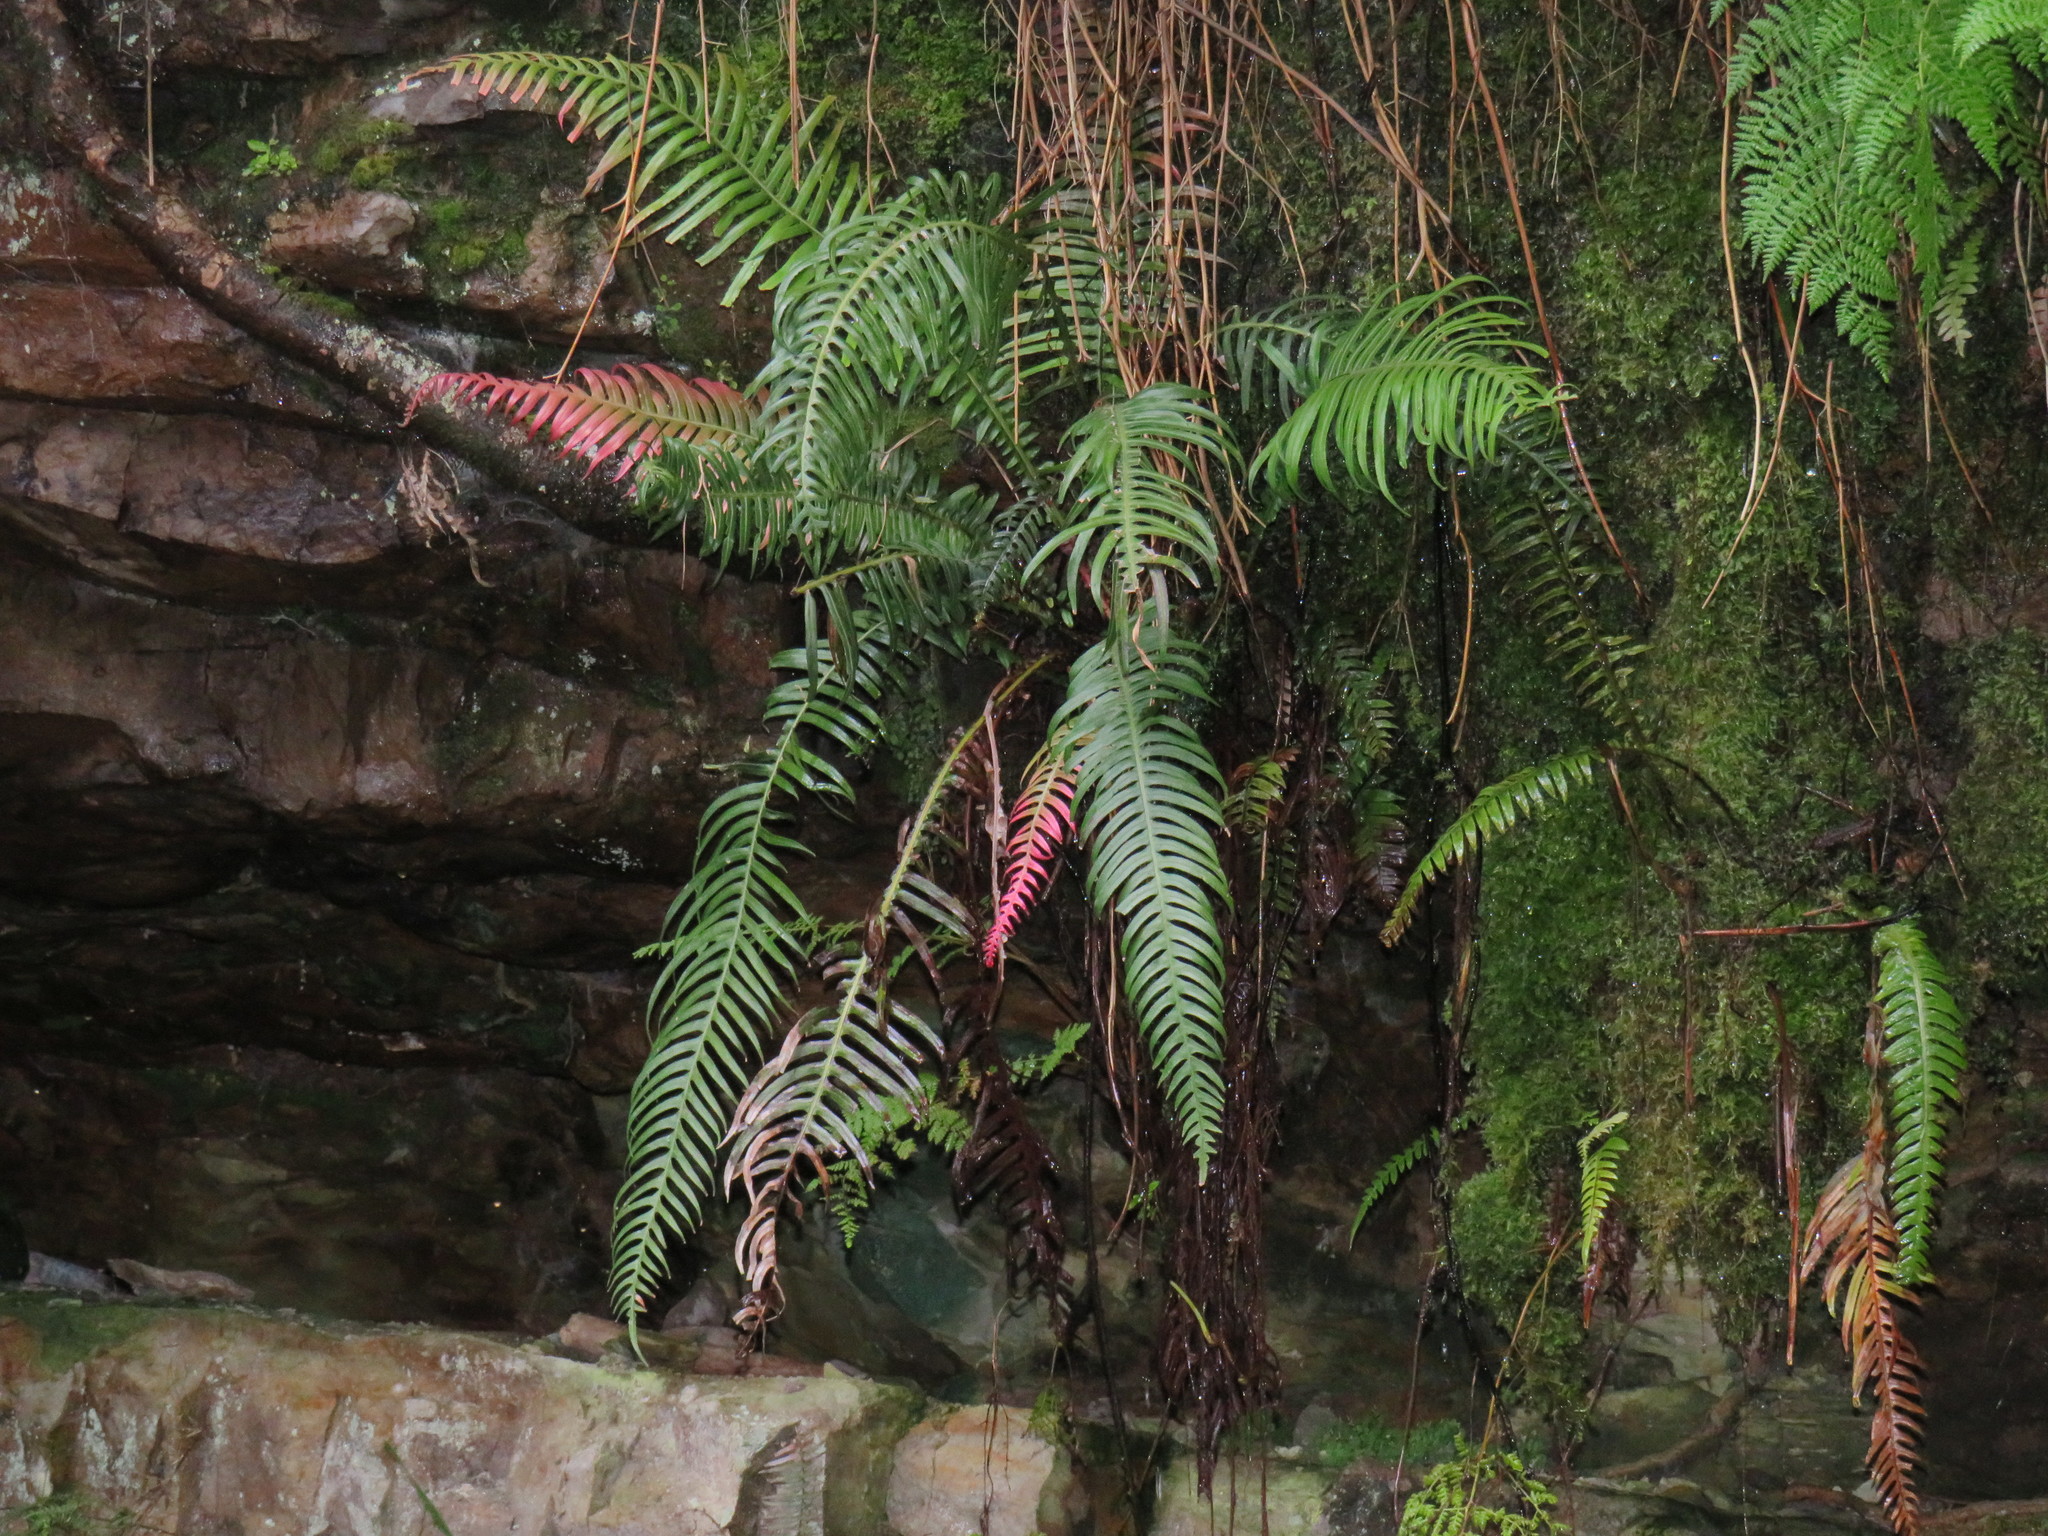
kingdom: Plantae
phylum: Tracheophyta
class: Polypodiopsida
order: Polypodiales
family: Blechnaceae
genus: Lomaridium
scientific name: Lomaridium attenuatum
